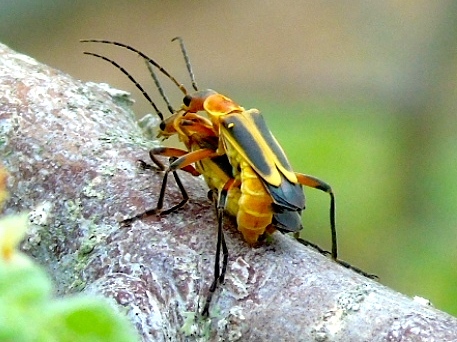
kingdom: Animalia
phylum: Arthropoda
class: Insecta
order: Coleoptera
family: Cantharidae
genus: Chauliognathus
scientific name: Chauliognathus
